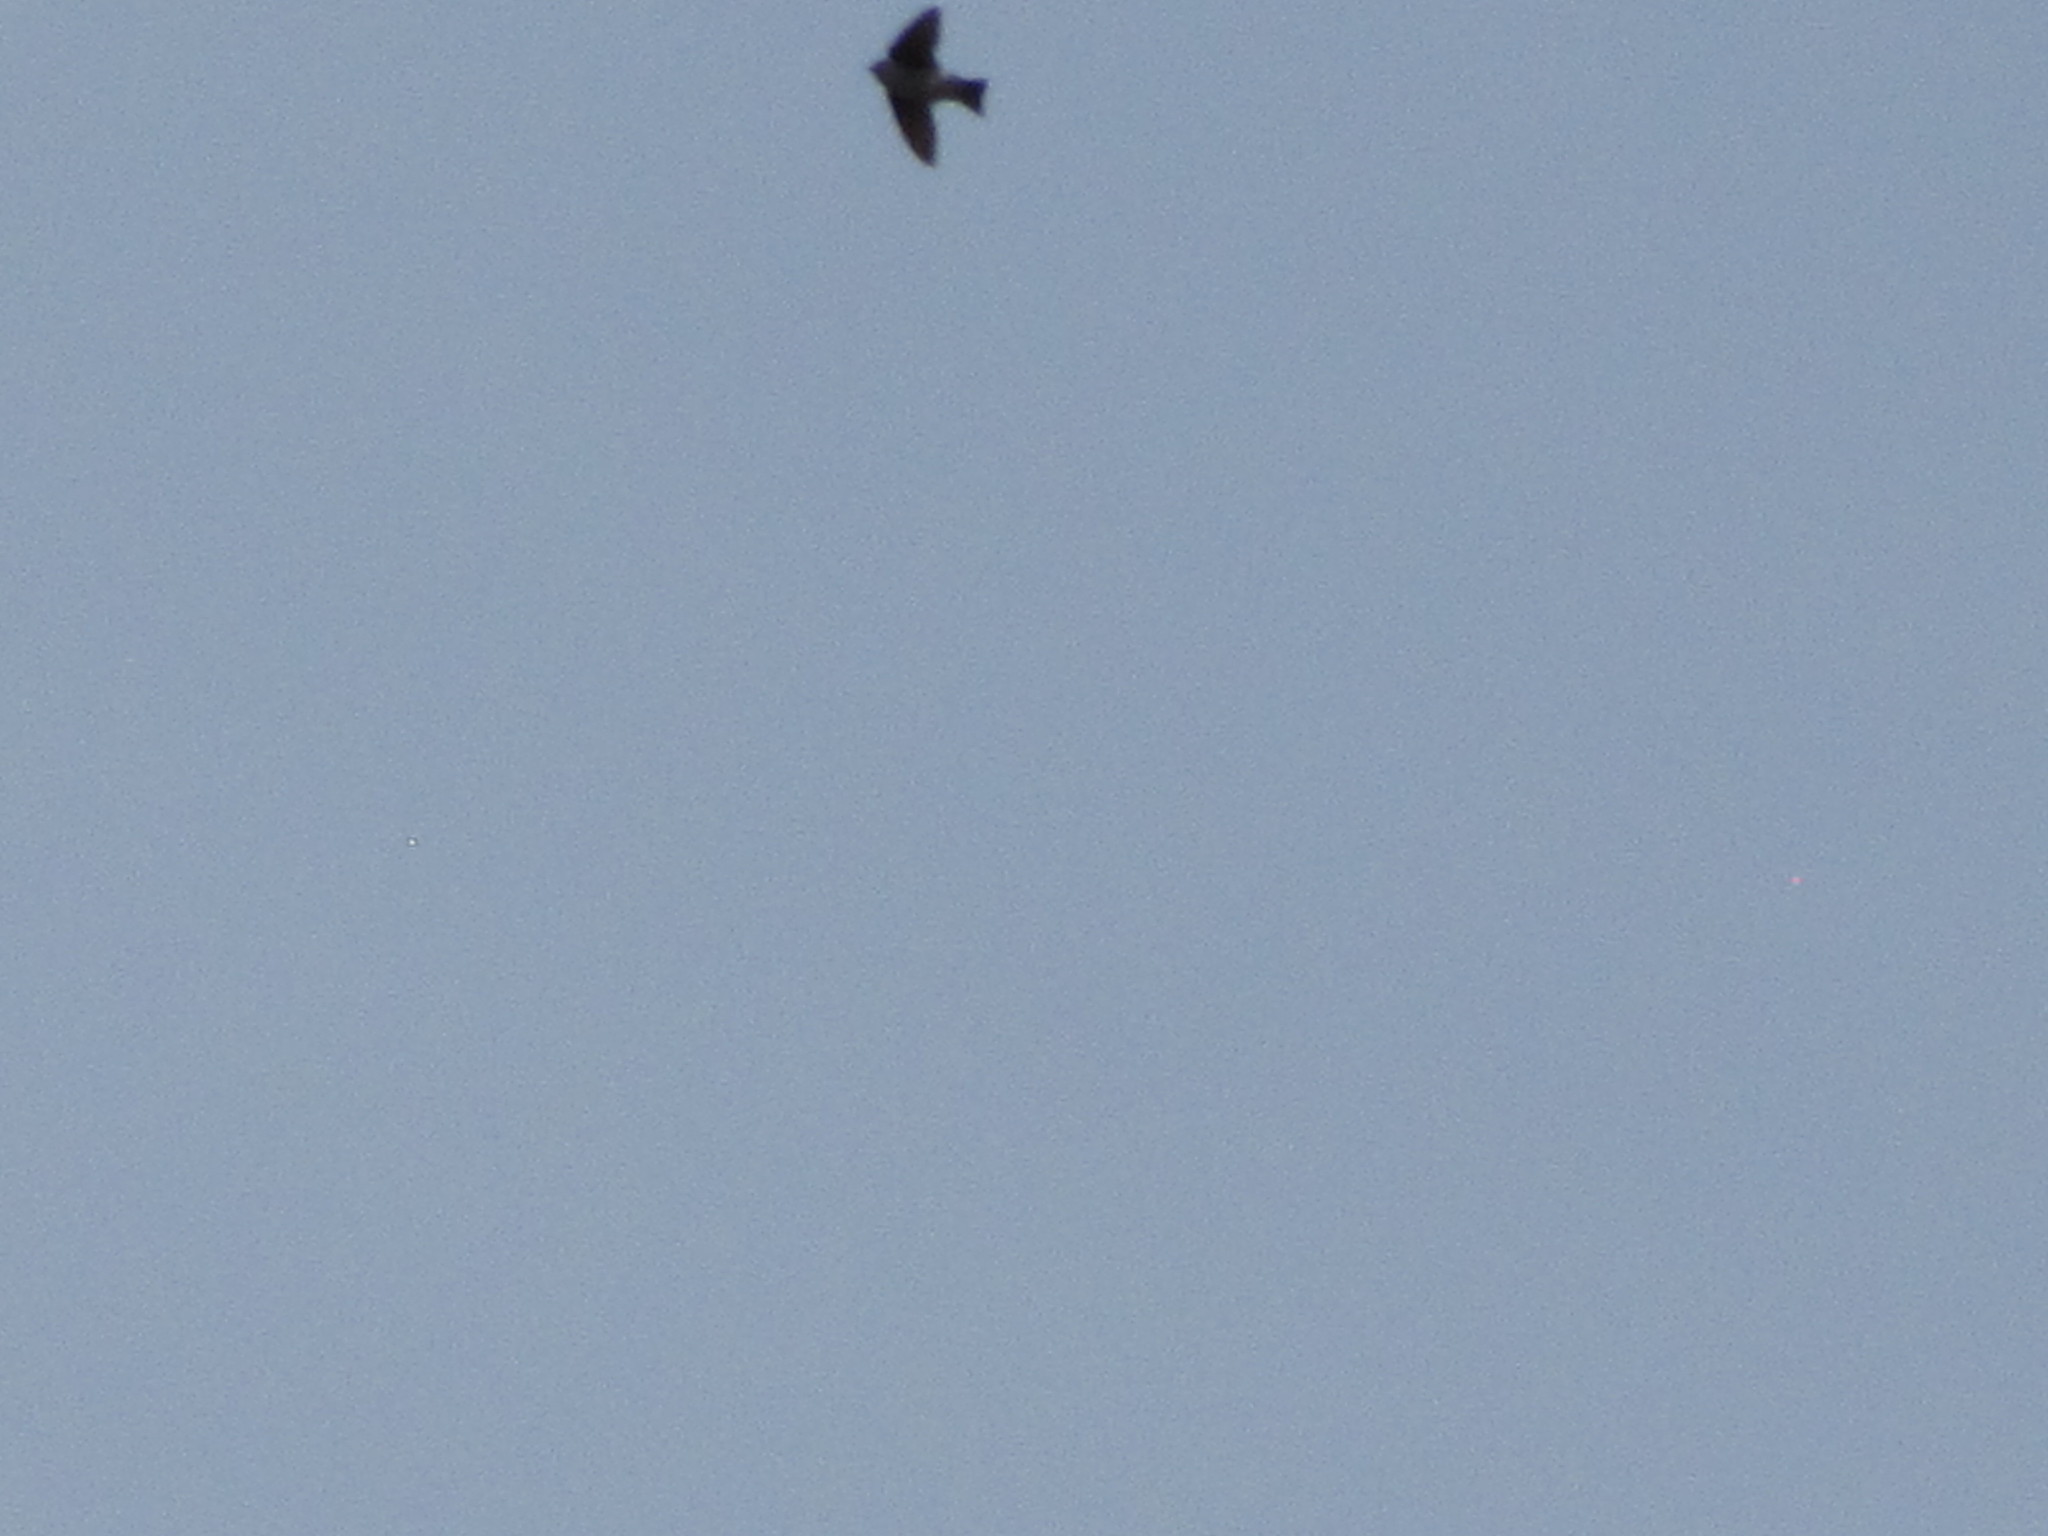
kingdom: Animalia
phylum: Chordata
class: Aves
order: Passeriformes
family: Hirundinidae
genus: Tachycineta
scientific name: Tachycineta thalassina
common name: Violet-green swallow
